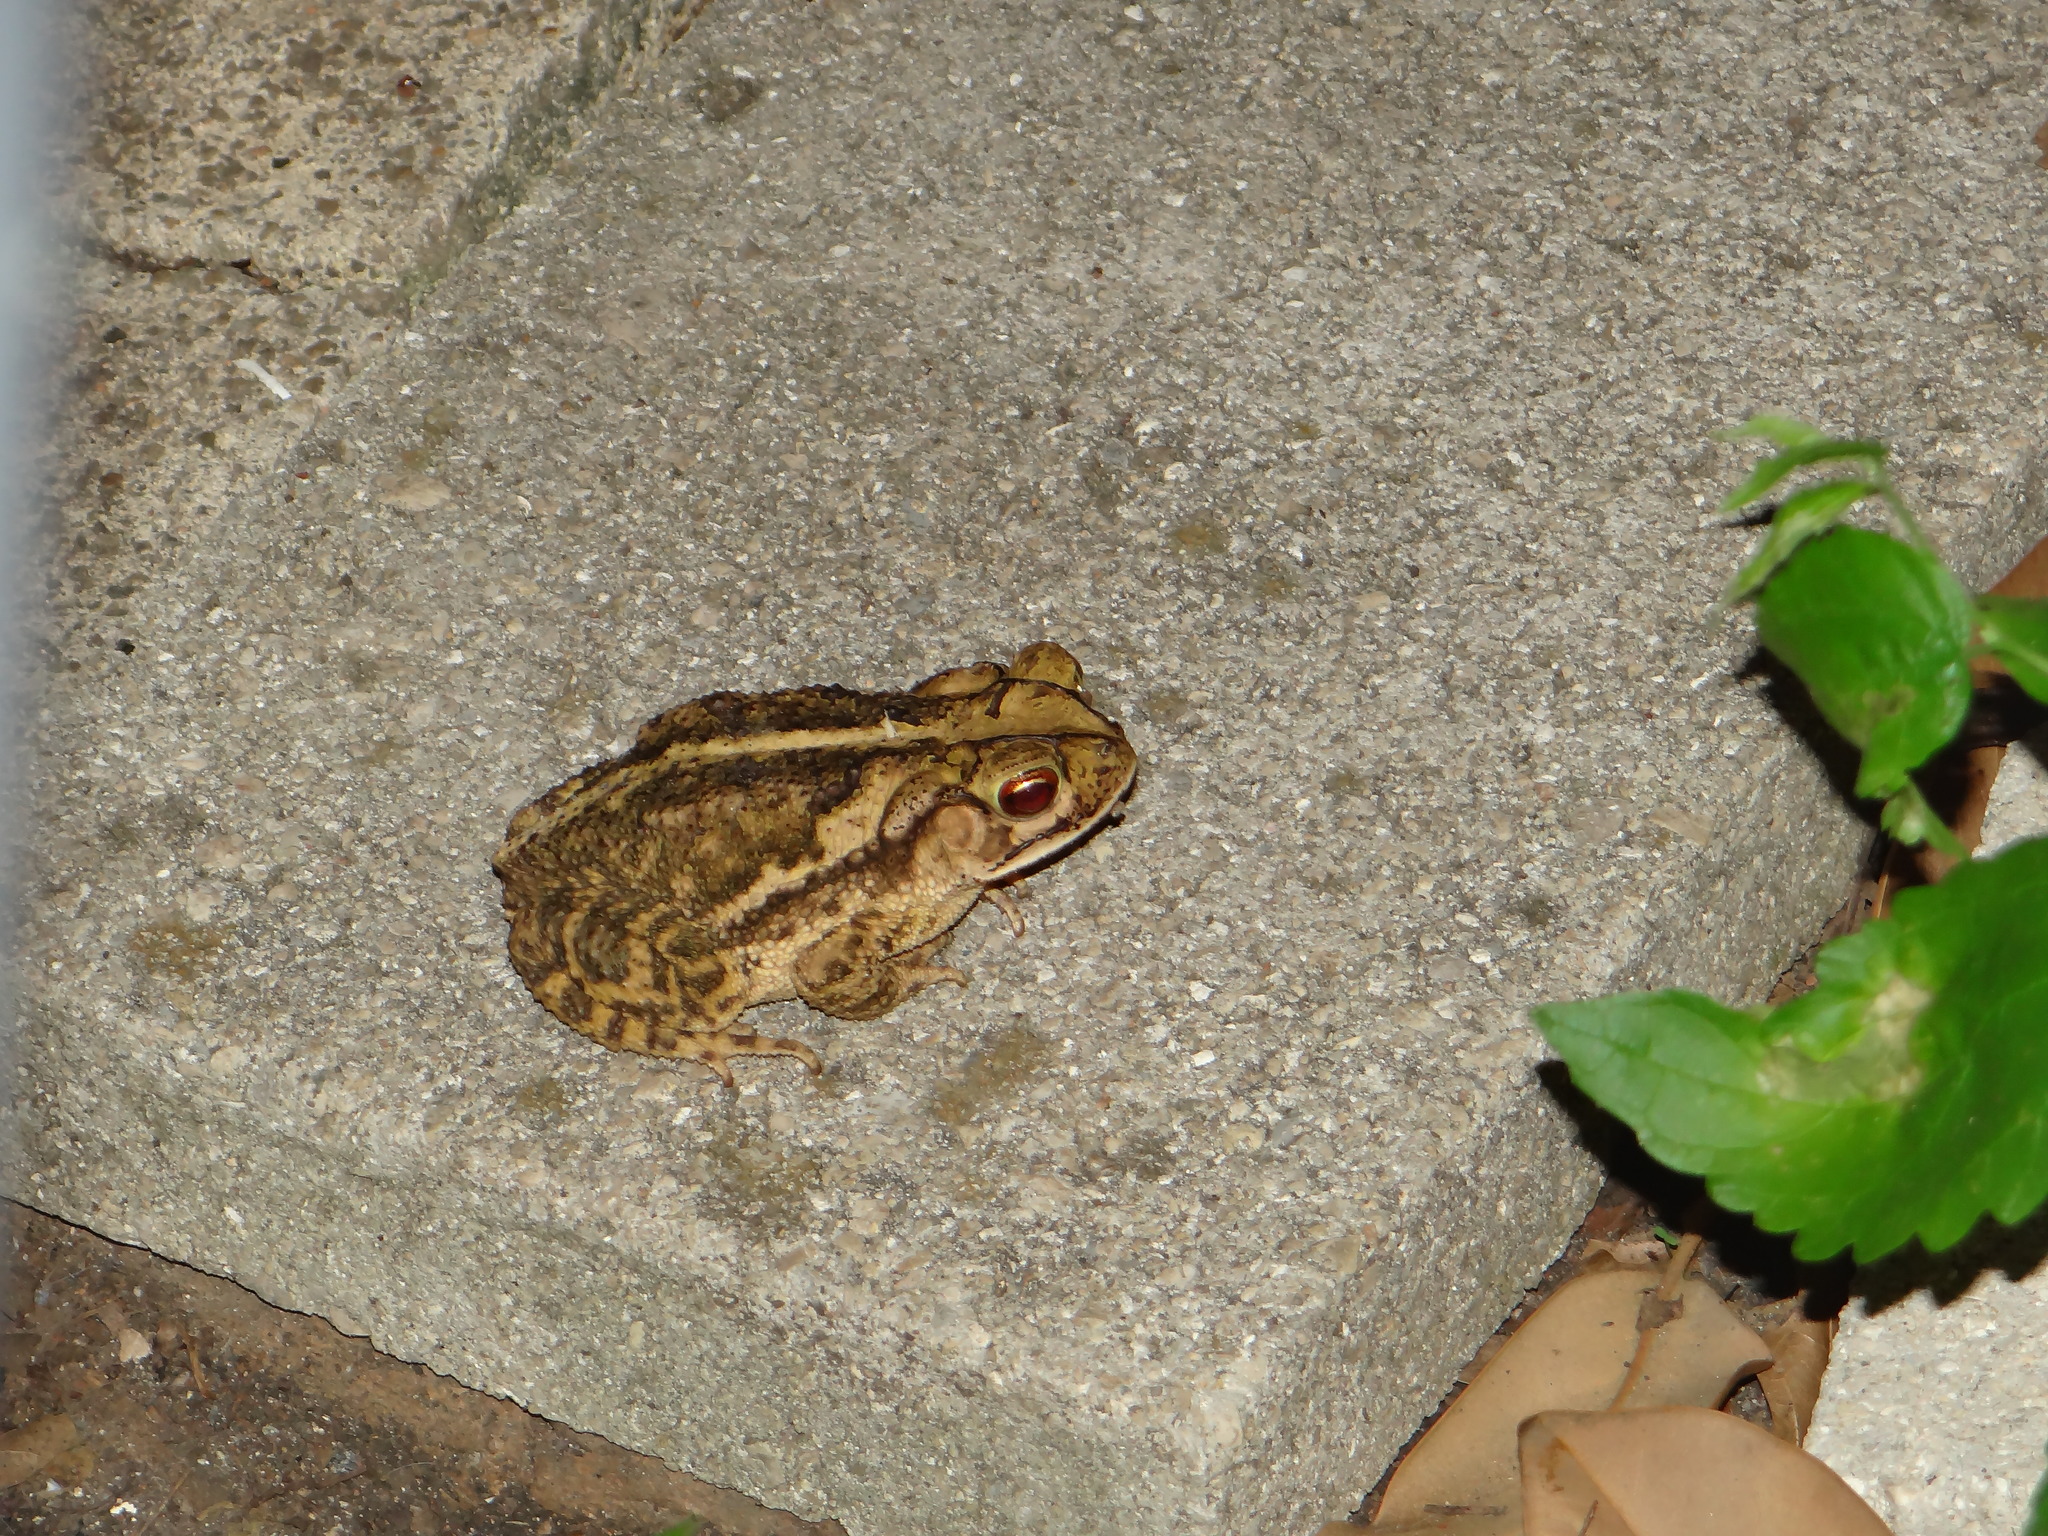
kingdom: Animalia
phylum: Chordata
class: Amphibia
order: Anura
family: Bufonidae
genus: Incilius
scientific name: Incilius nebulifer
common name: Gulf coast toad
